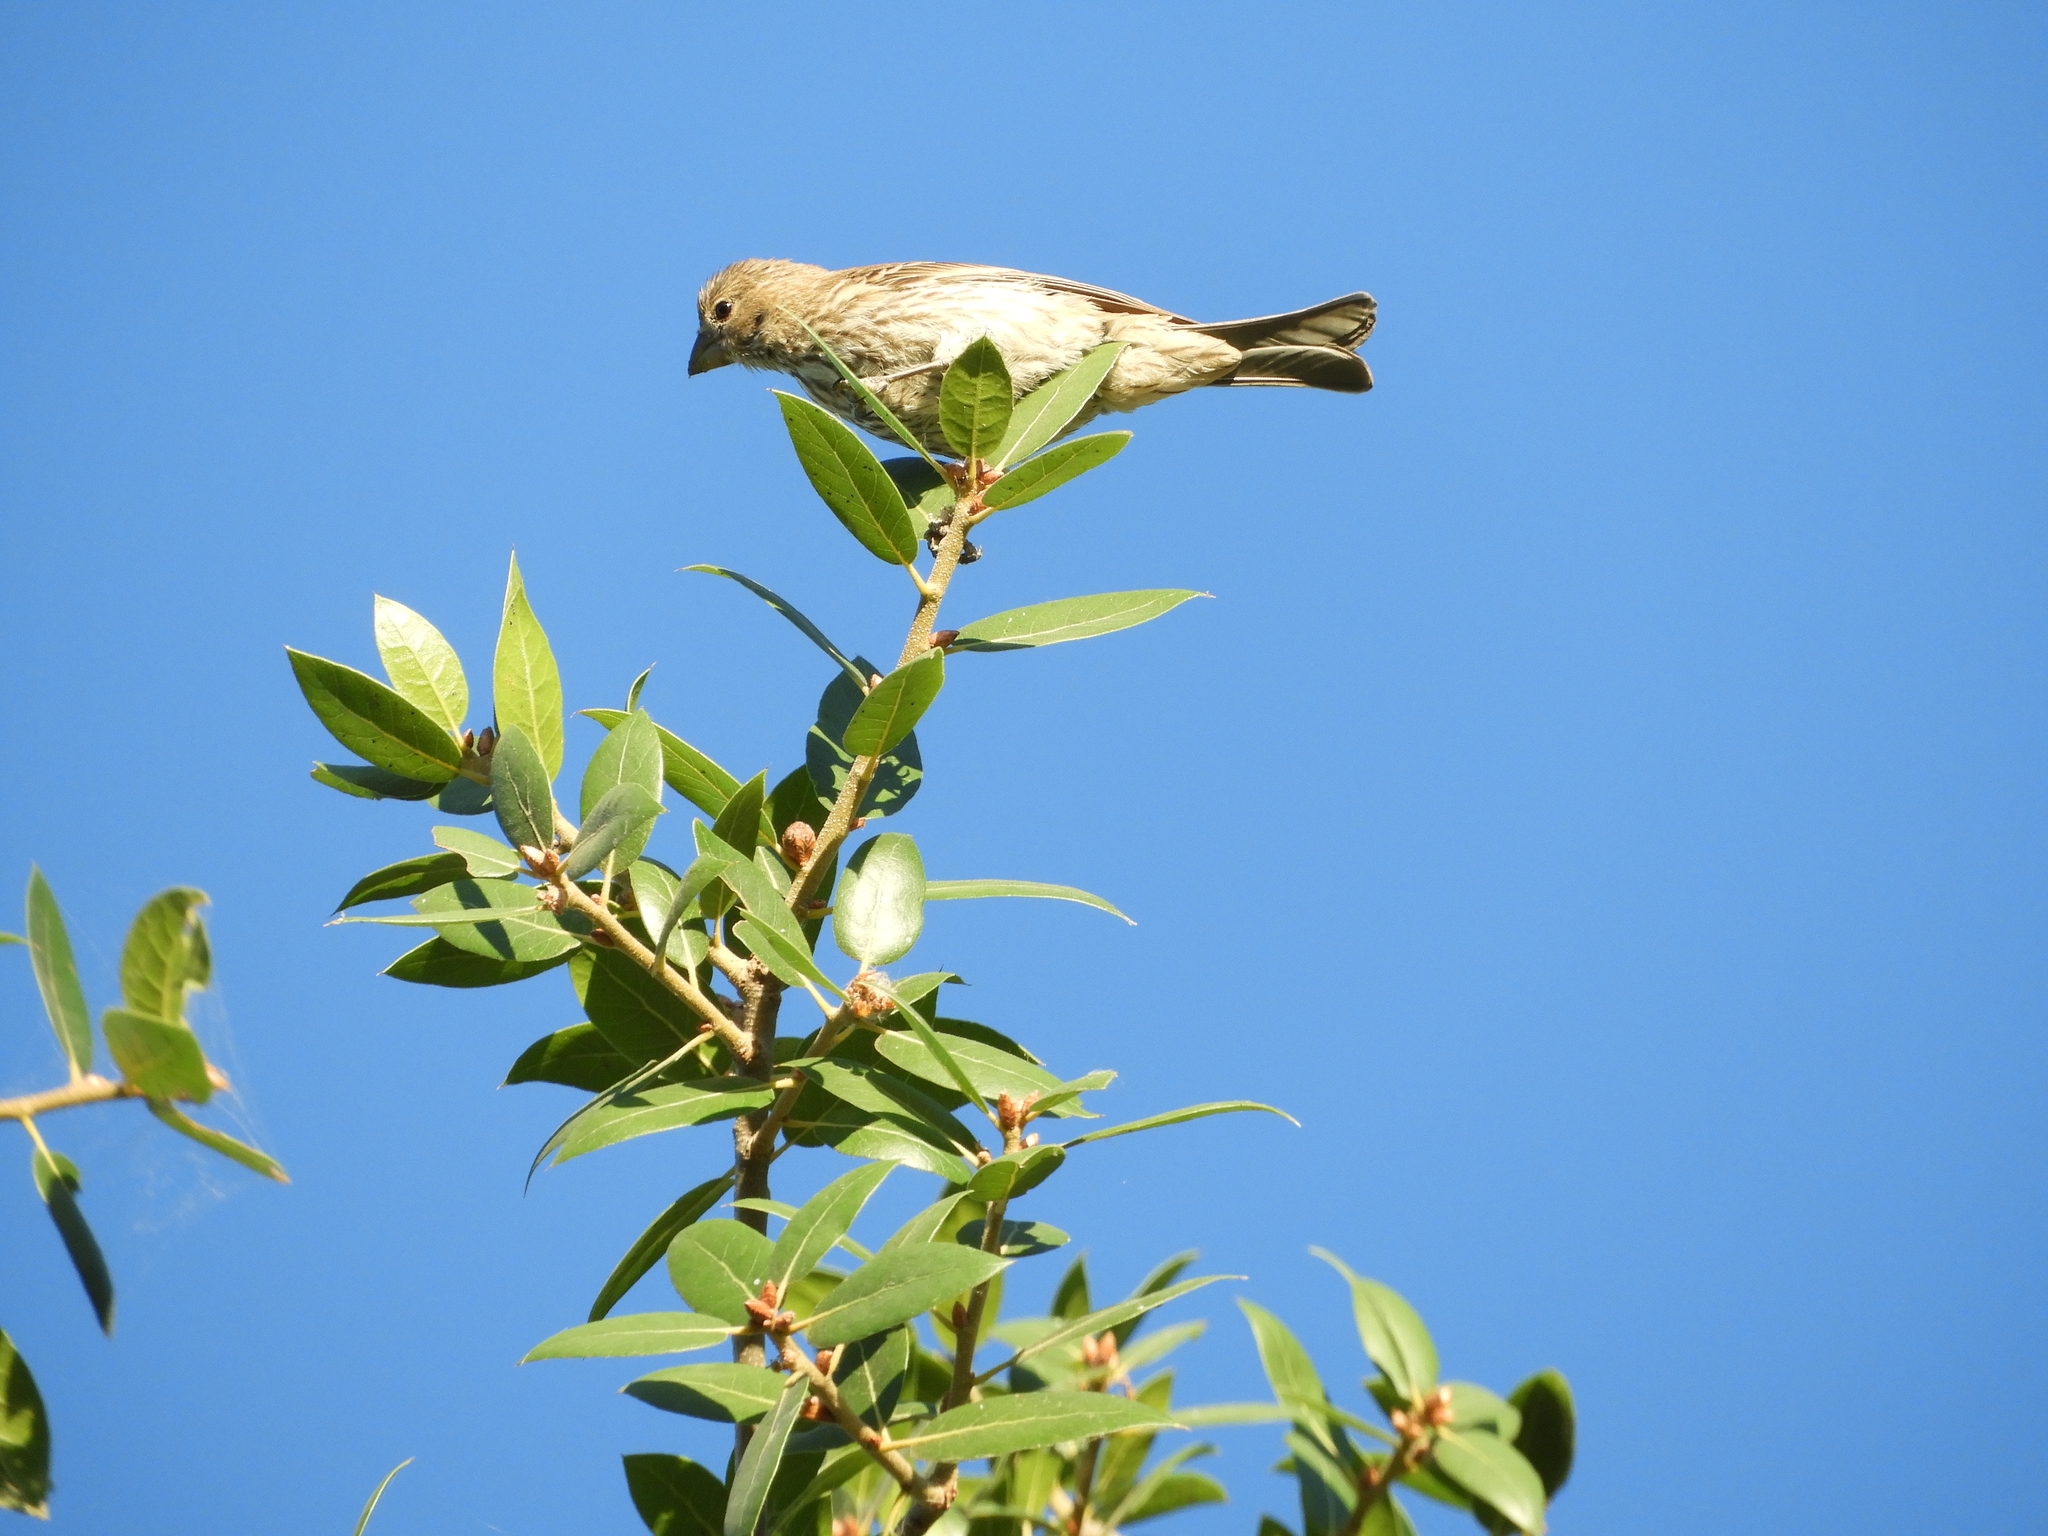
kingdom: Animalia
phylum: Chordata
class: Aves
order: Passeriformes
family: Fringillidae
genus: Haemorhous
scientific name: Haemorhous mexicanus
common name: House finch
